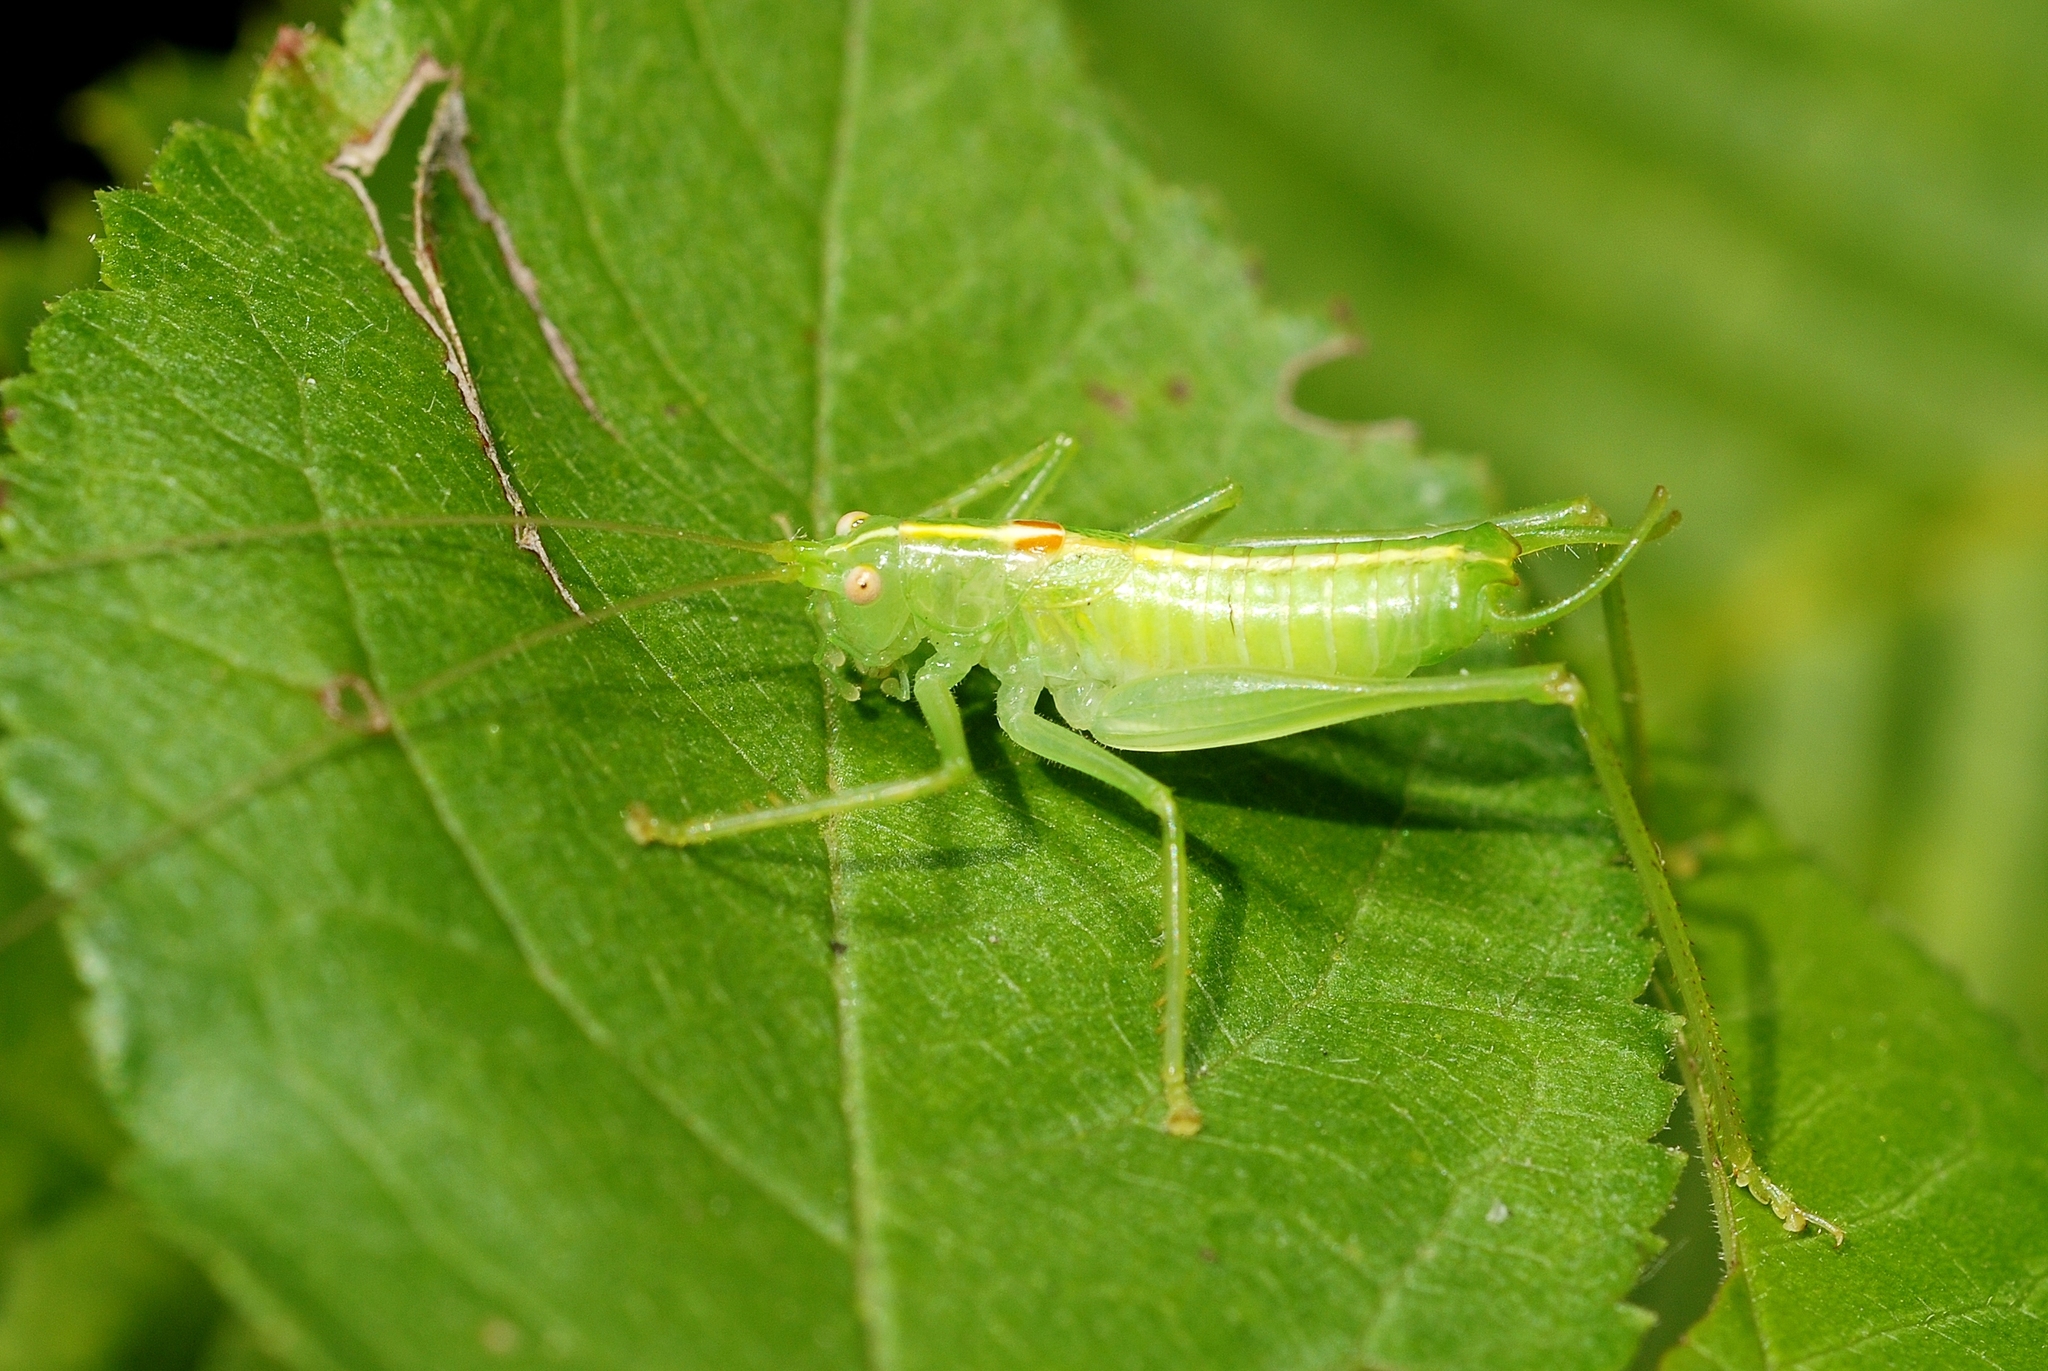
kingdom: Animalia
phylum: Arthropoda
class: Insecta
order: Orthoptera
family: Tettigoniidae
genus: Meconema
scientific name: Meconema meridionale
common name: Southern oak bush-cricket
